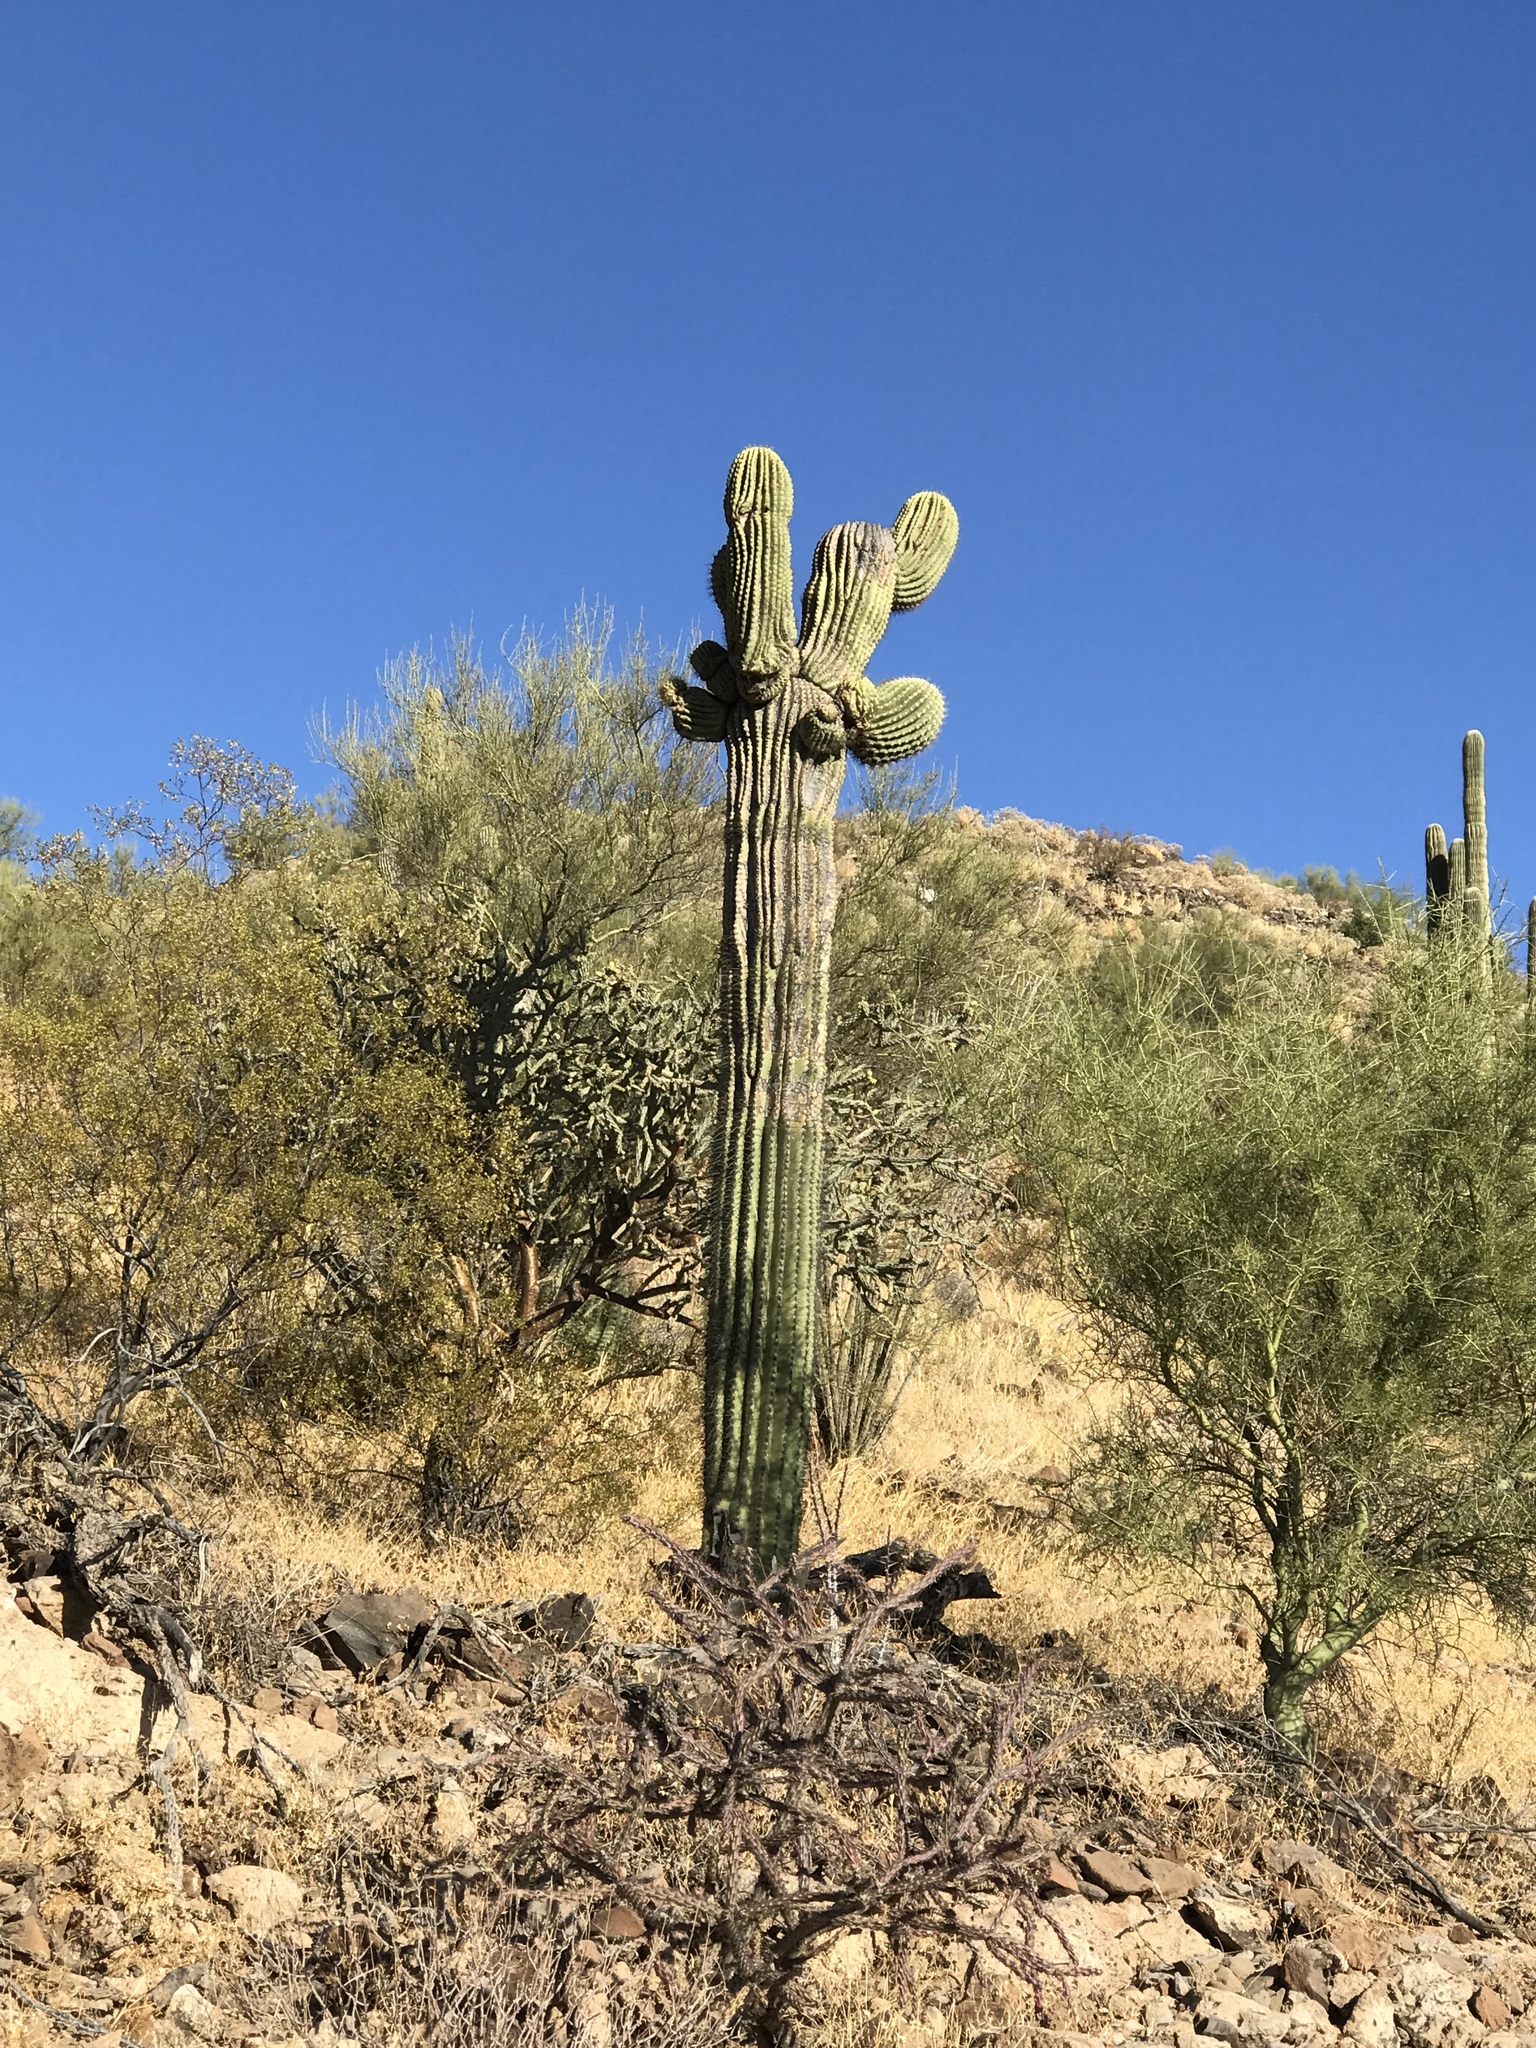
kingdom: Plantae
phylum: Tracheophyta
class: Magnoliopsida
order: Caryophyllales
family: Cactaceae
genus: Carnegiea
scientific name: Carnegiea gigantea
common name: Saguaro
